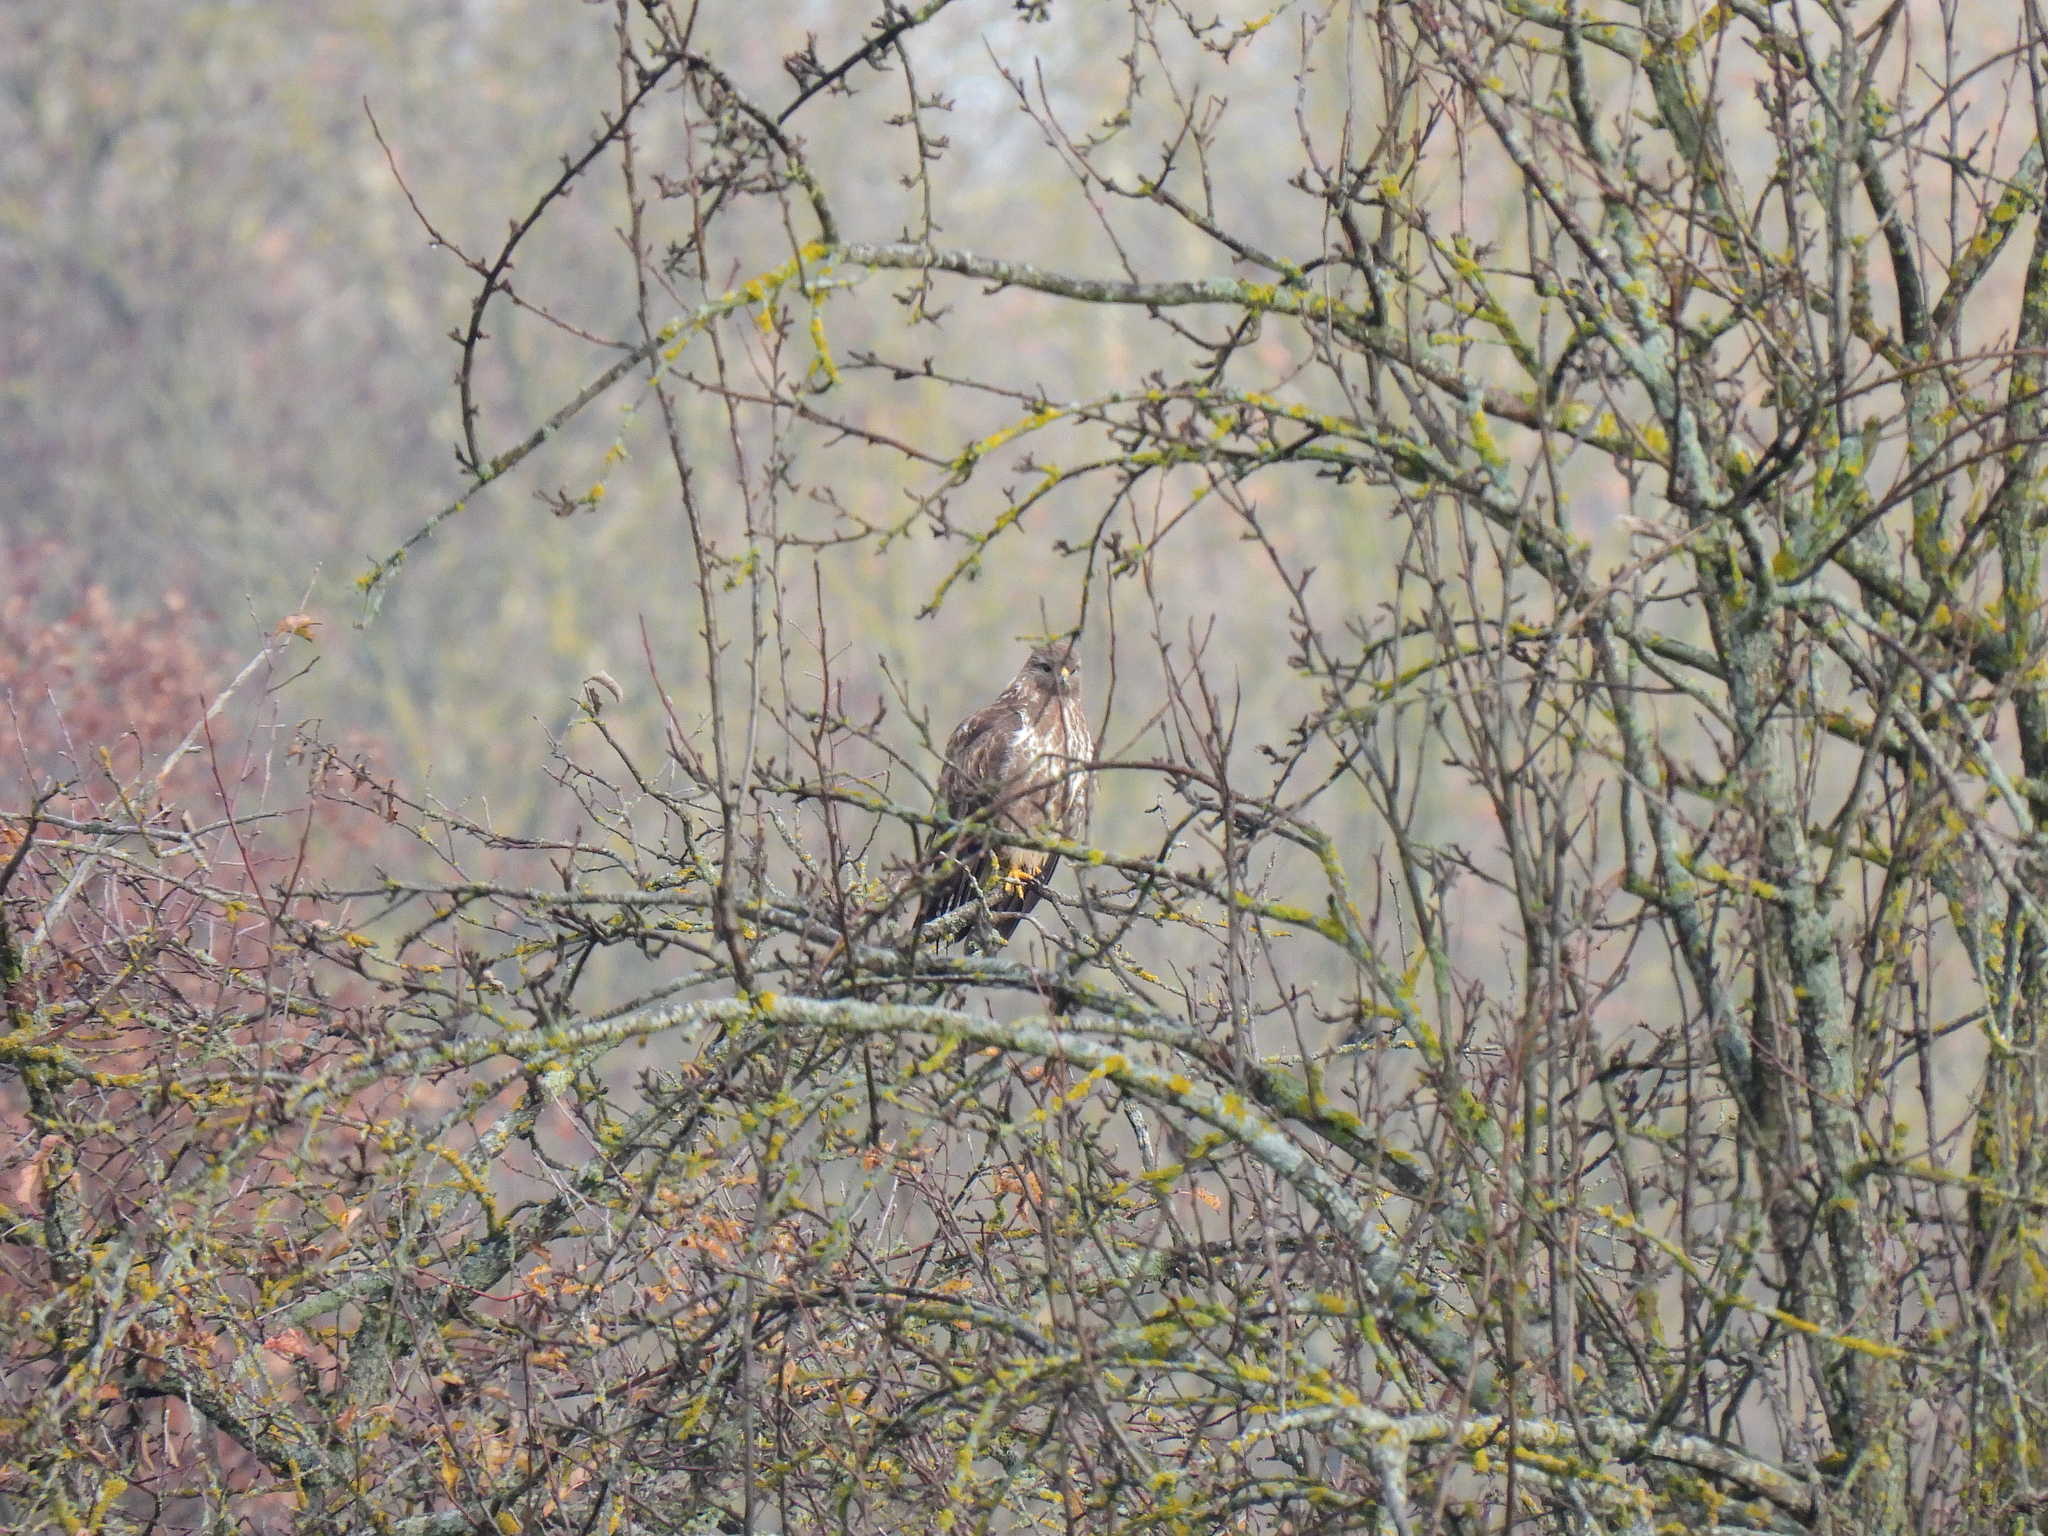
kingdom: Animalia
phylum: Chordata
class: Aves
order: Accipitriformes
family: Accipitridae
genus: Buteo
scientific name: Buteo buteo
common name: Common buzzard
